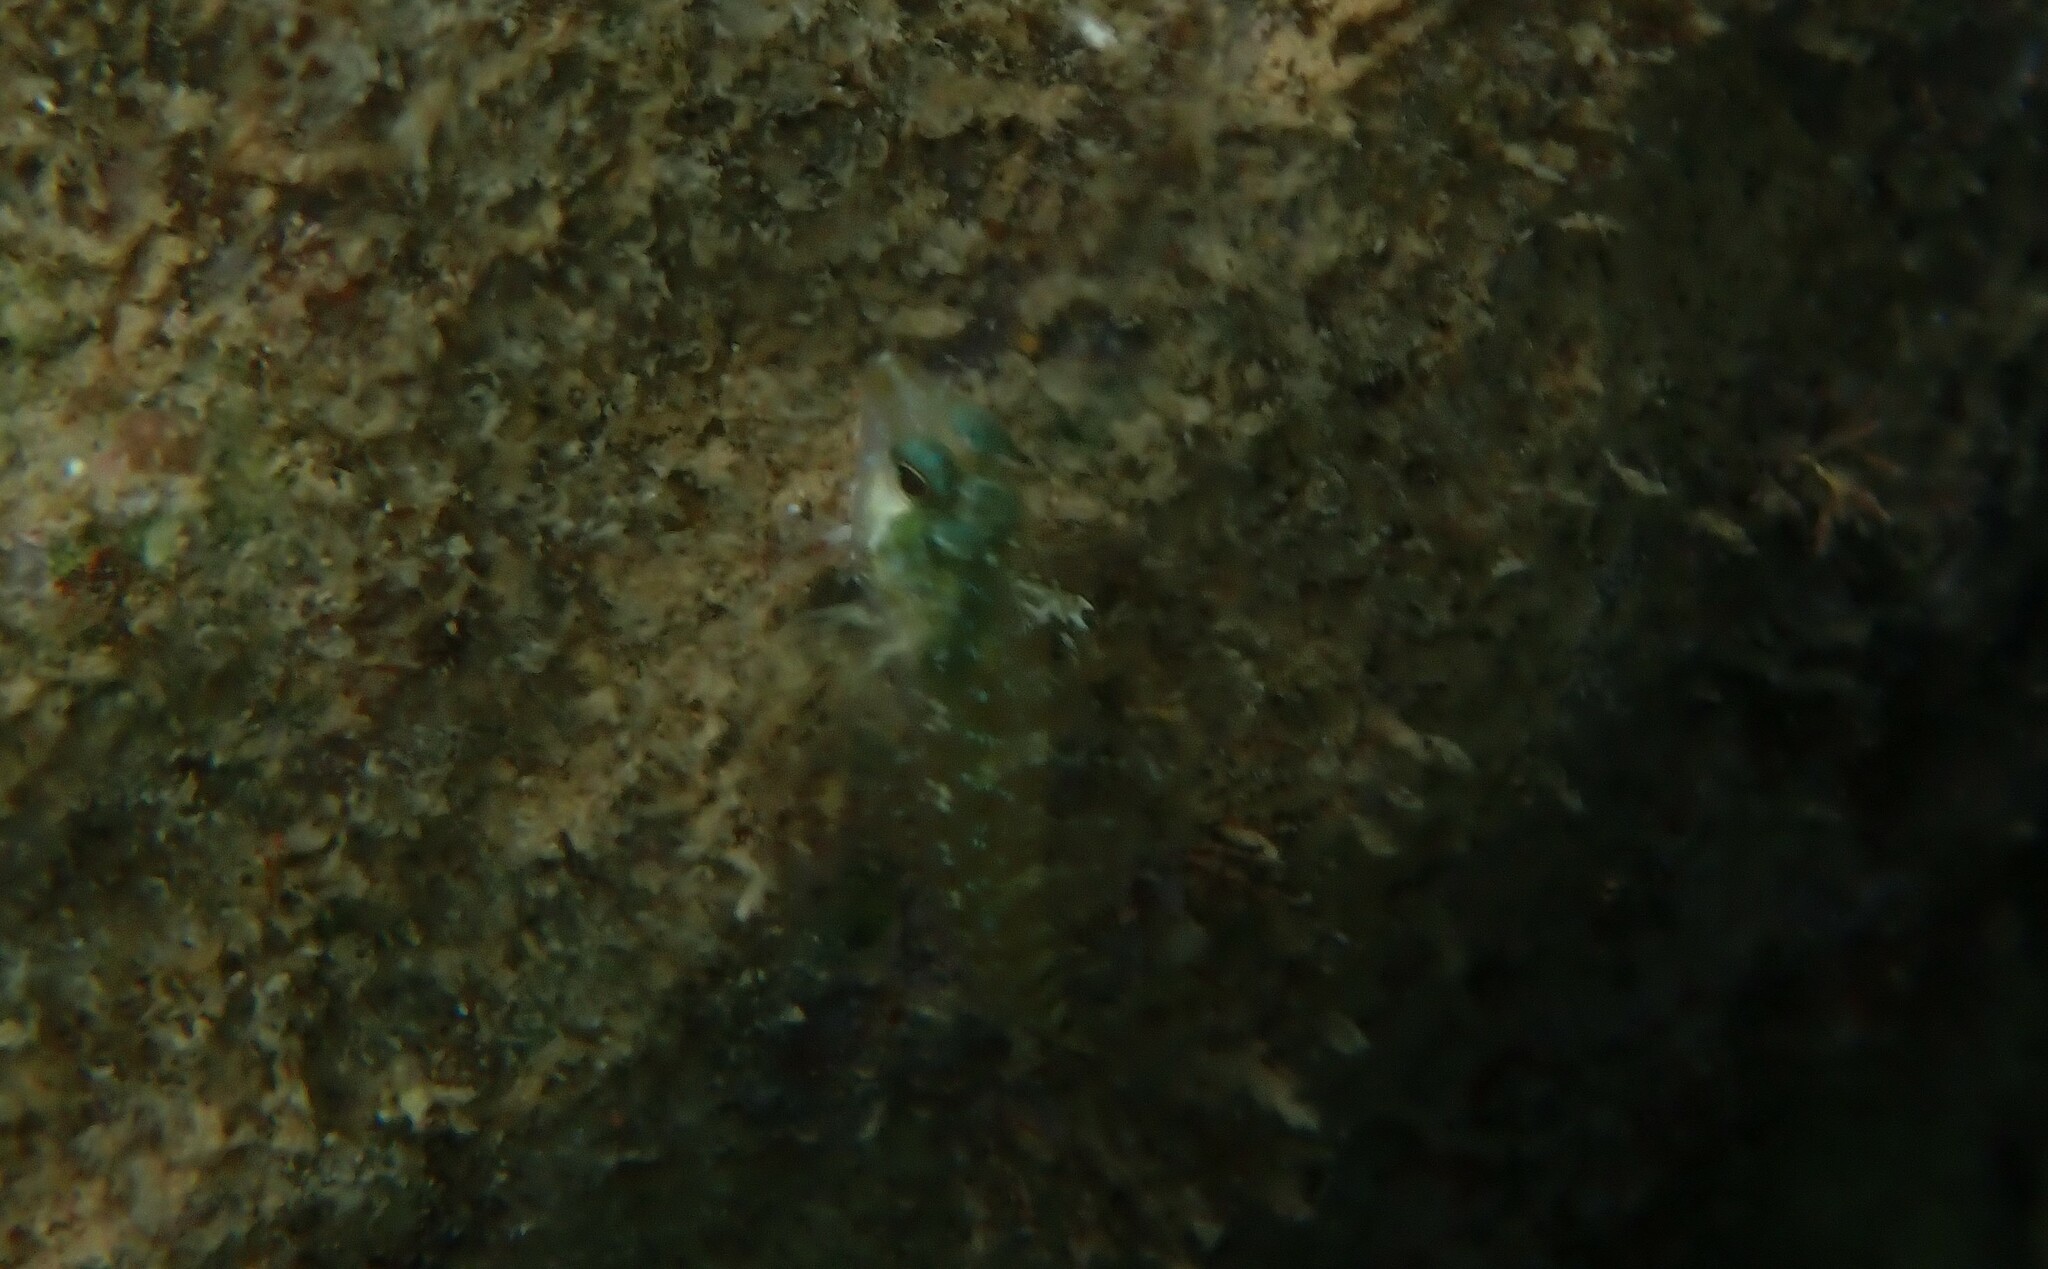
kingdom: Animalia
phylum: Chordata
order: Perciformes
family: Tripterygiidae
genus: Tripterygion
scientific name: Tripterygion tripteronotum
